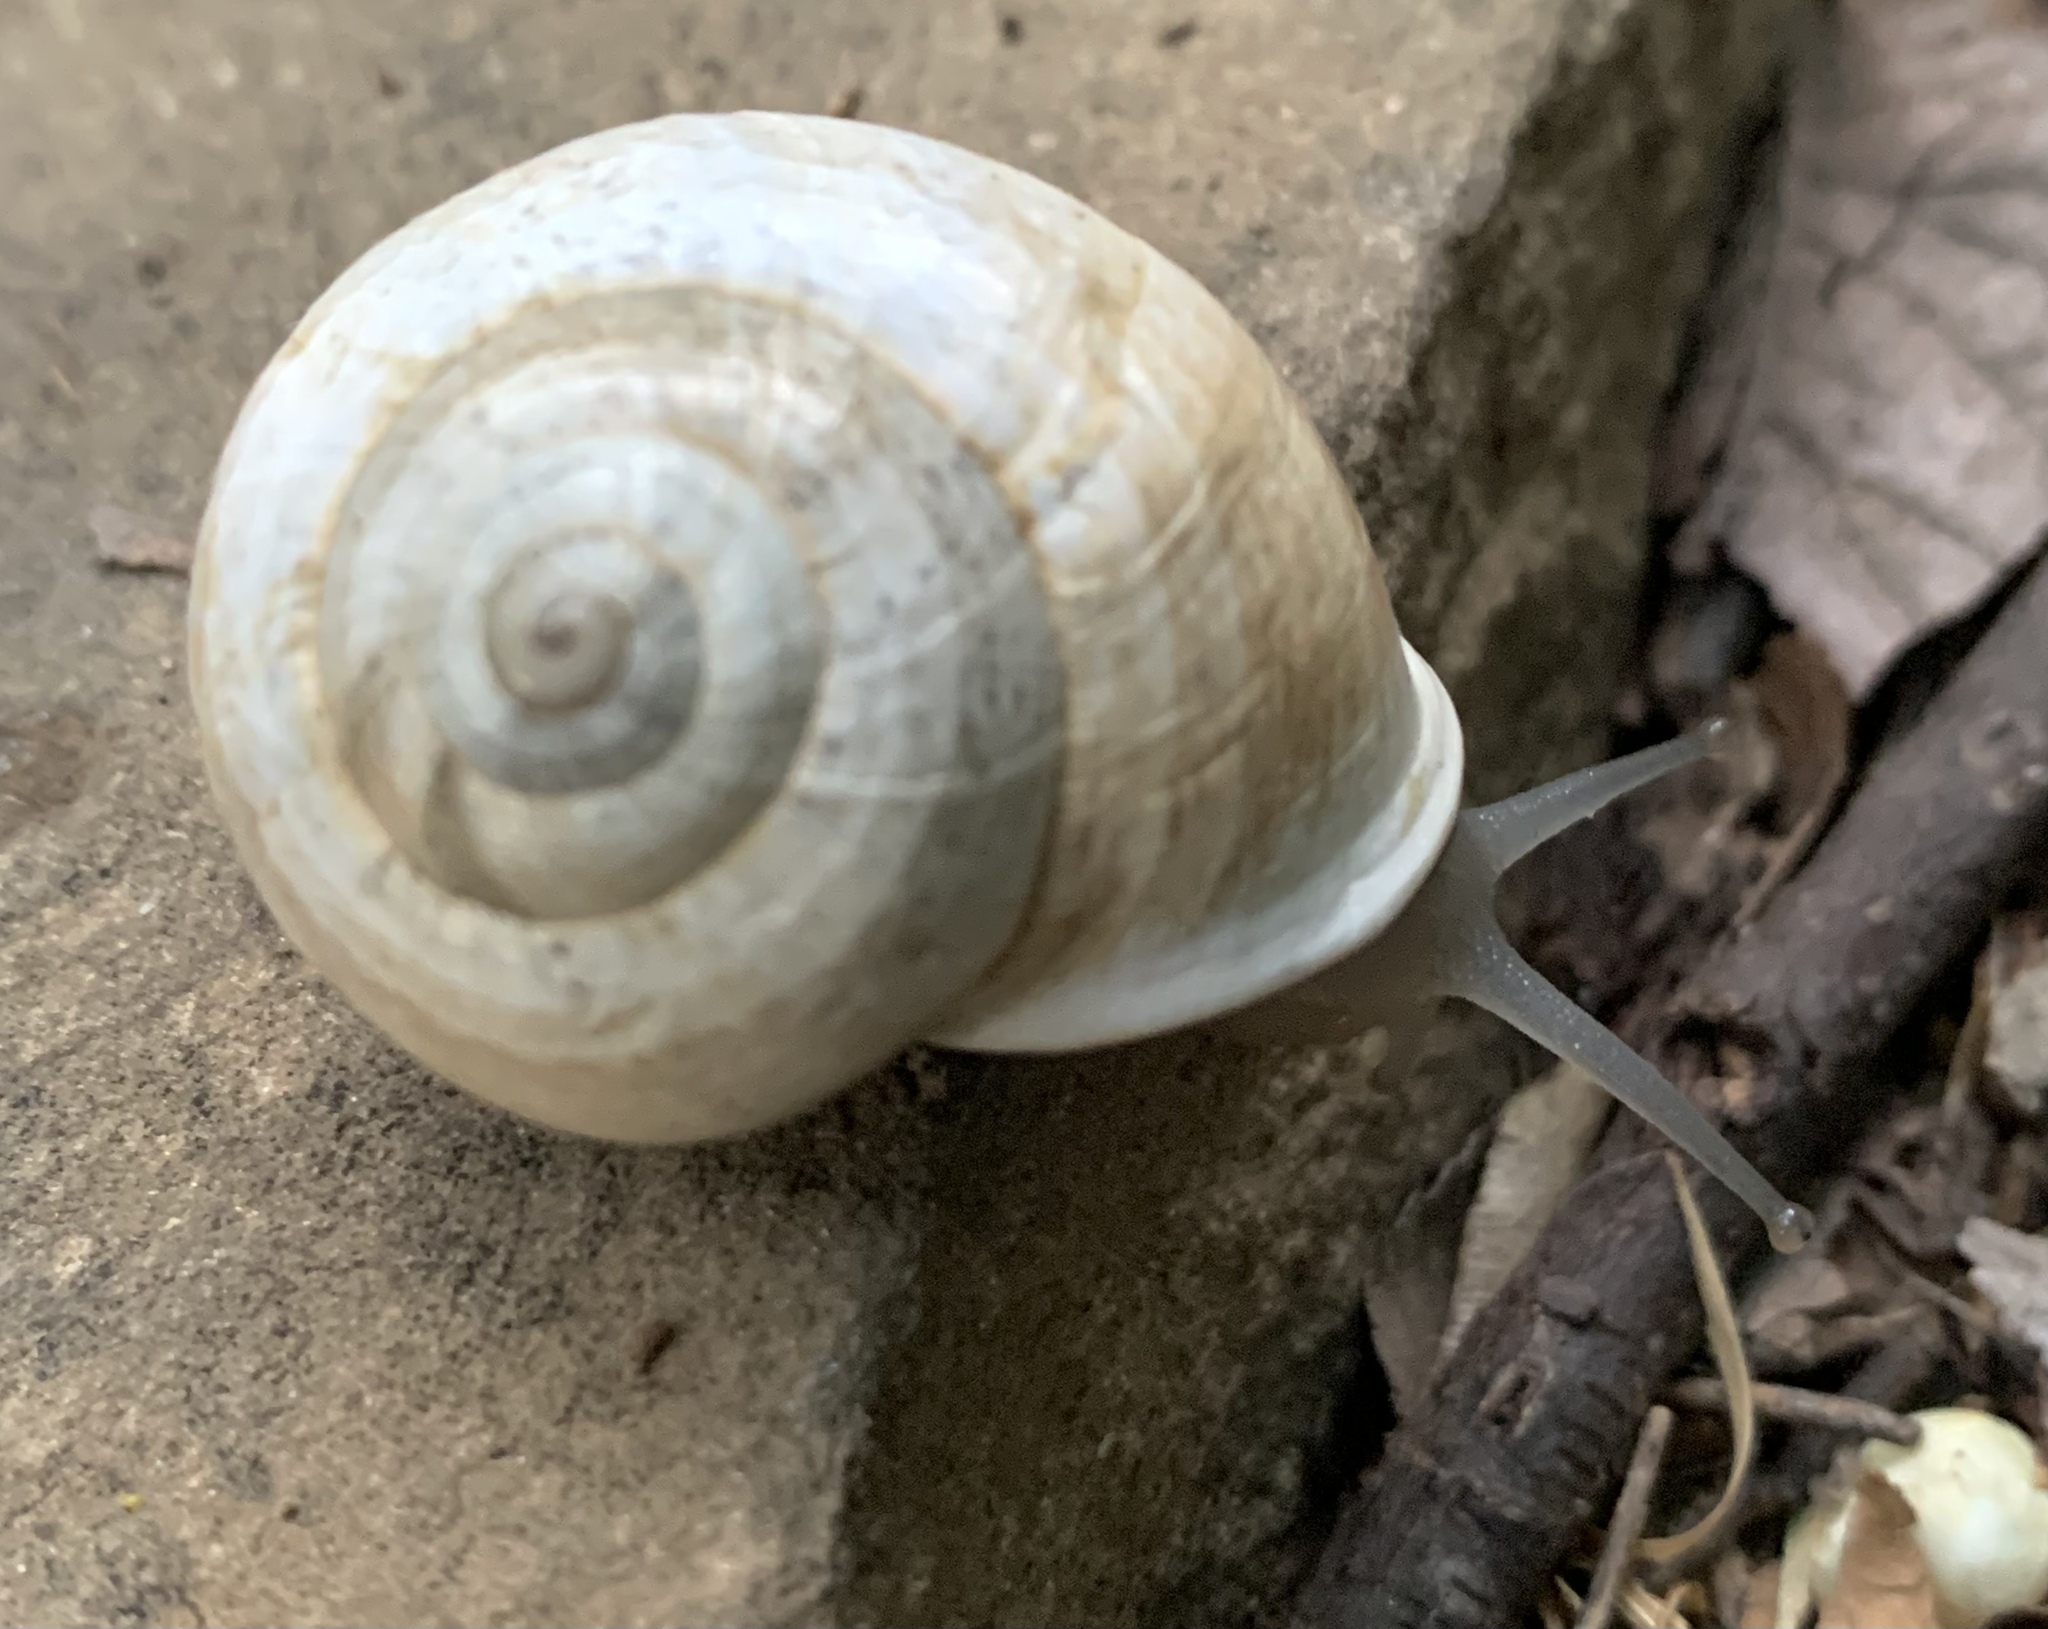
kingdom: Animalia
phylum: Mollusca
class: Gastropoda
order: Stylommatophora
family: Helicidae
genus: Otala
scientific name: Otala lactea
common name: Milk snail
